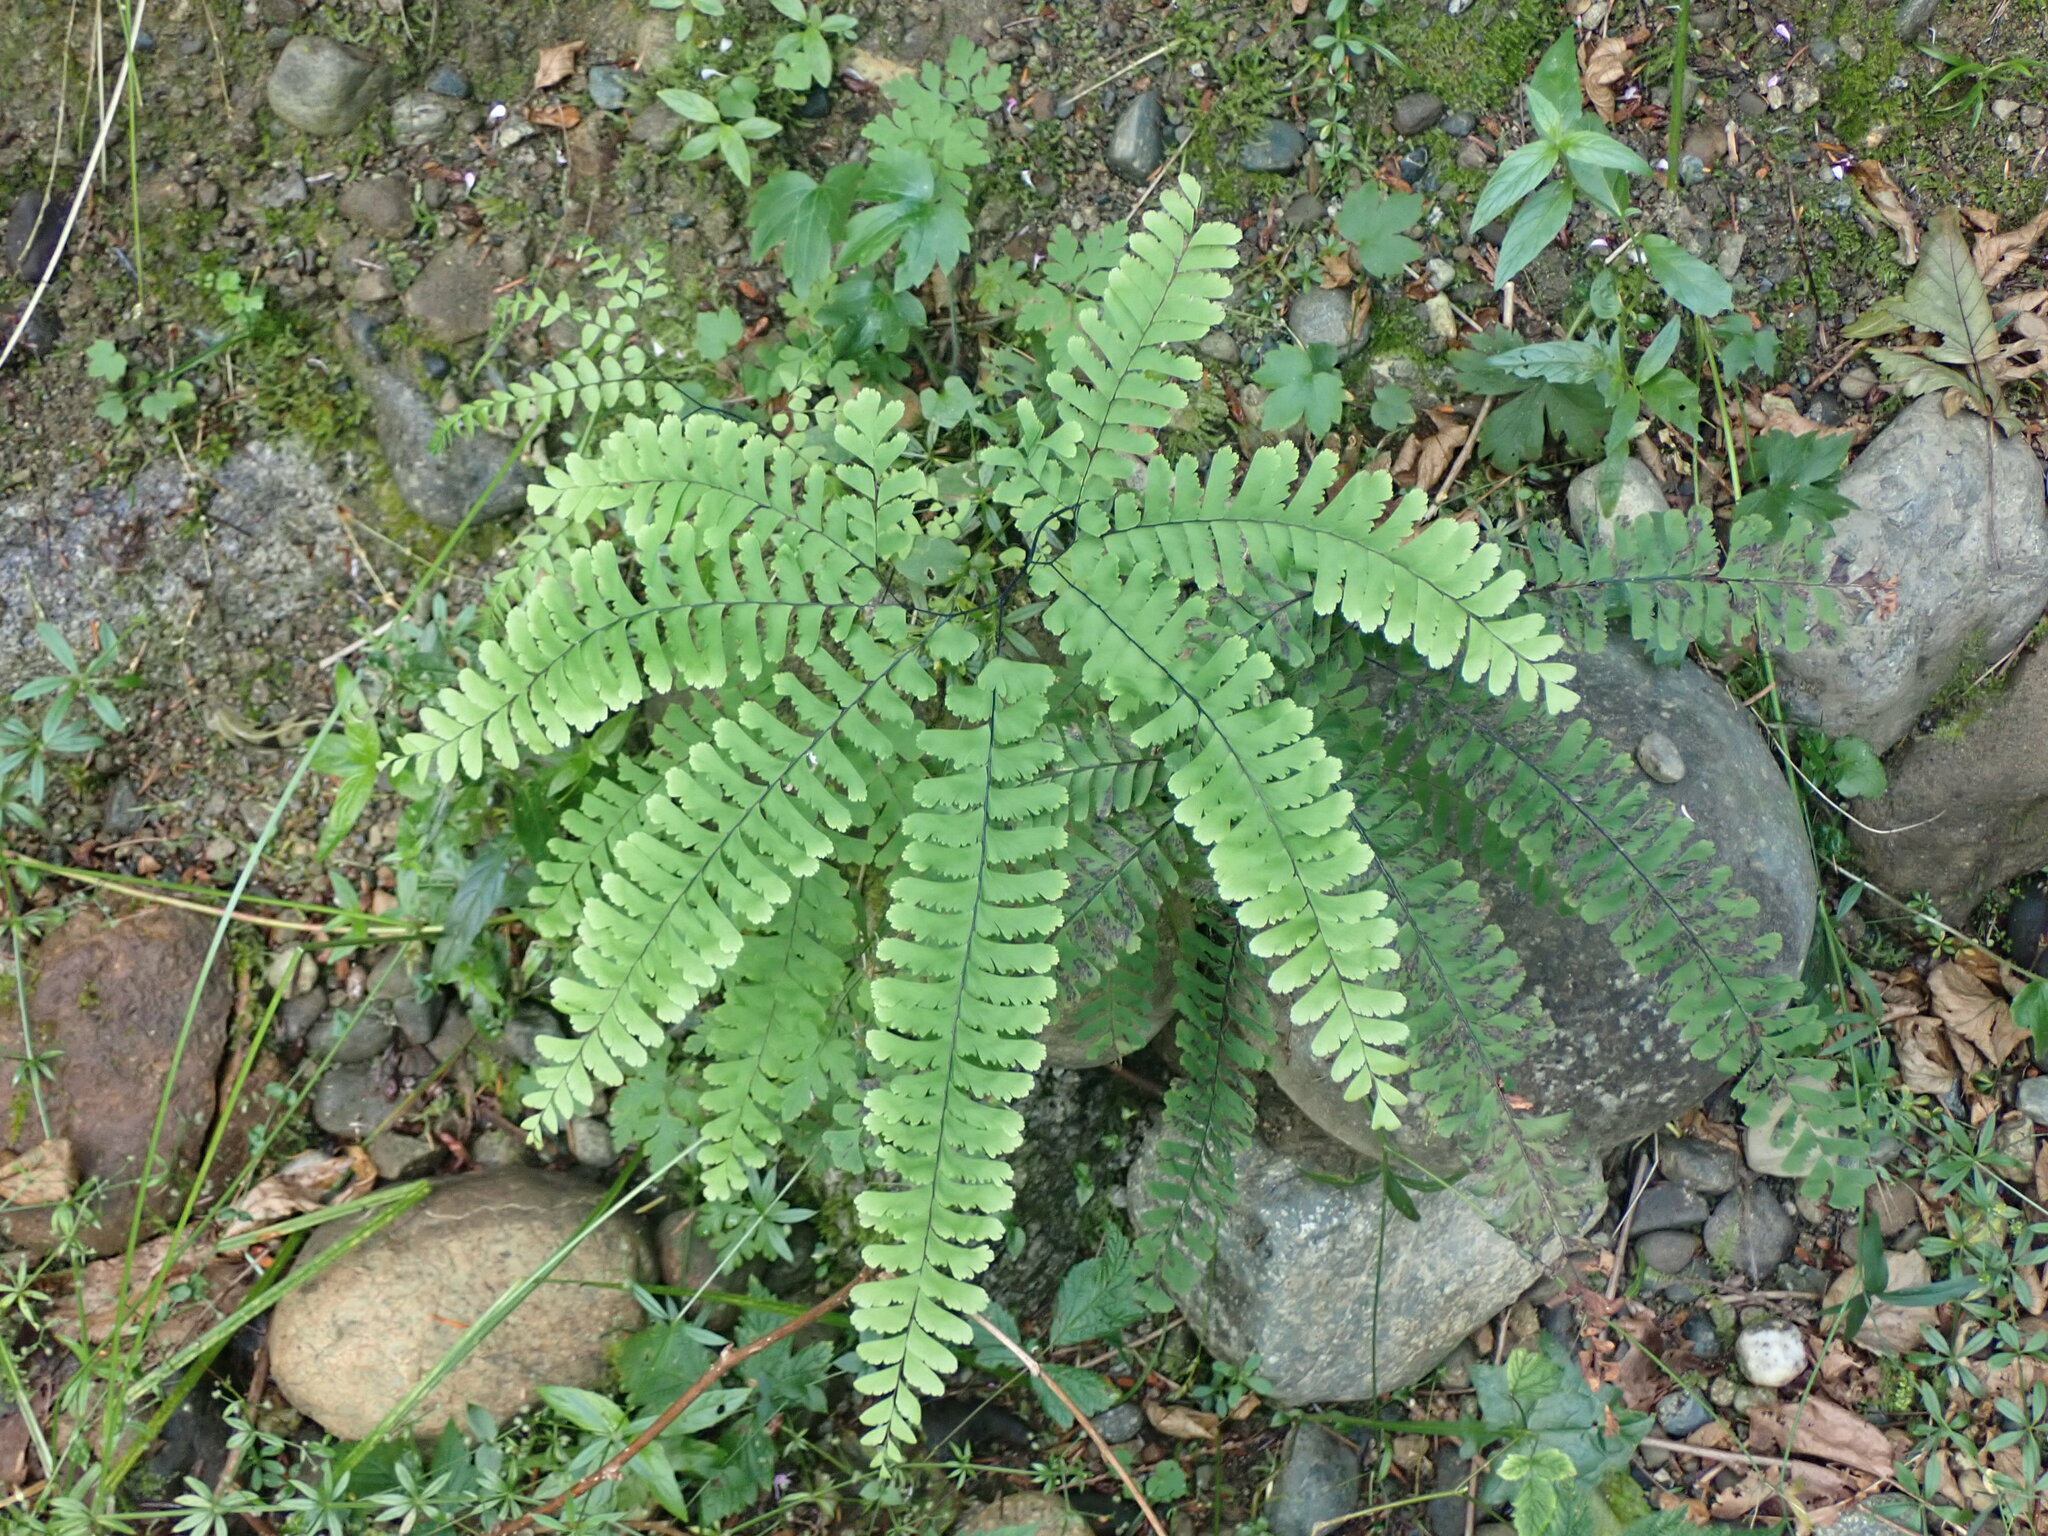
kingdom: Plantae
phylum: Tracheophyta
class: Polypodiopsida
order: Polypodiales
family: Pteridaceae
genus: Adiantum
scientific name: Adiantum aleuticum
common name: Aleutian maidenhair fern
